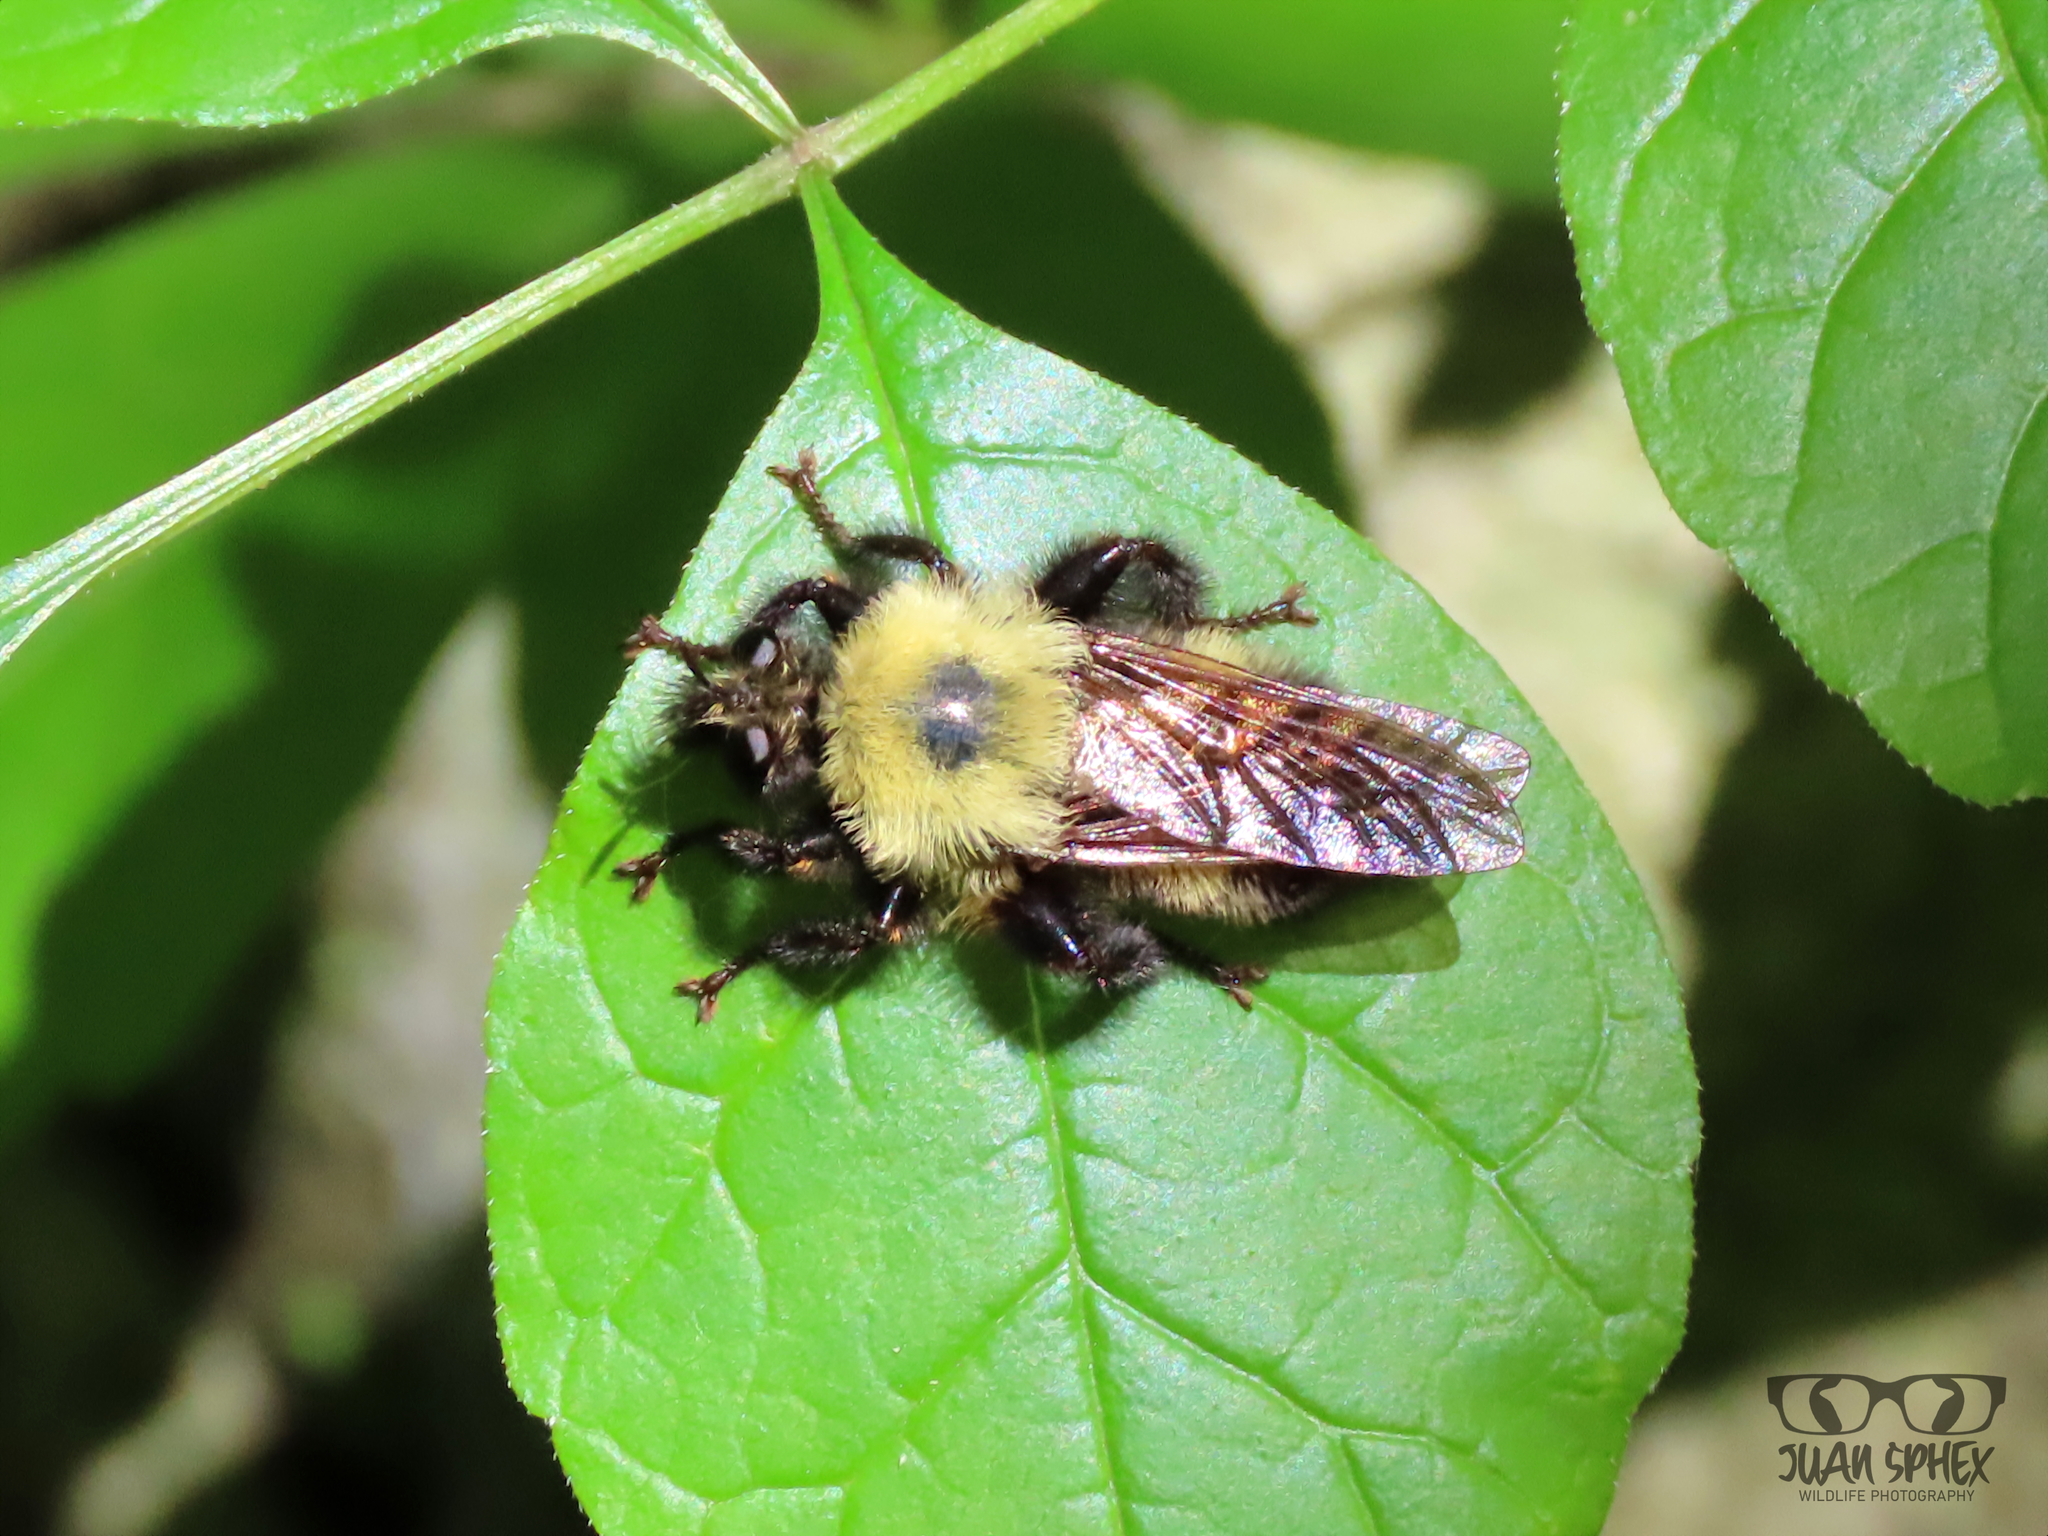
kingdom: Animalia
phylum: Arthropoda
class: Insecta
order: Diptera
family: Asilidae
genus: Laphria
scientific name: Laphria thoracica
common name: Bumble bee mimic robber fly
